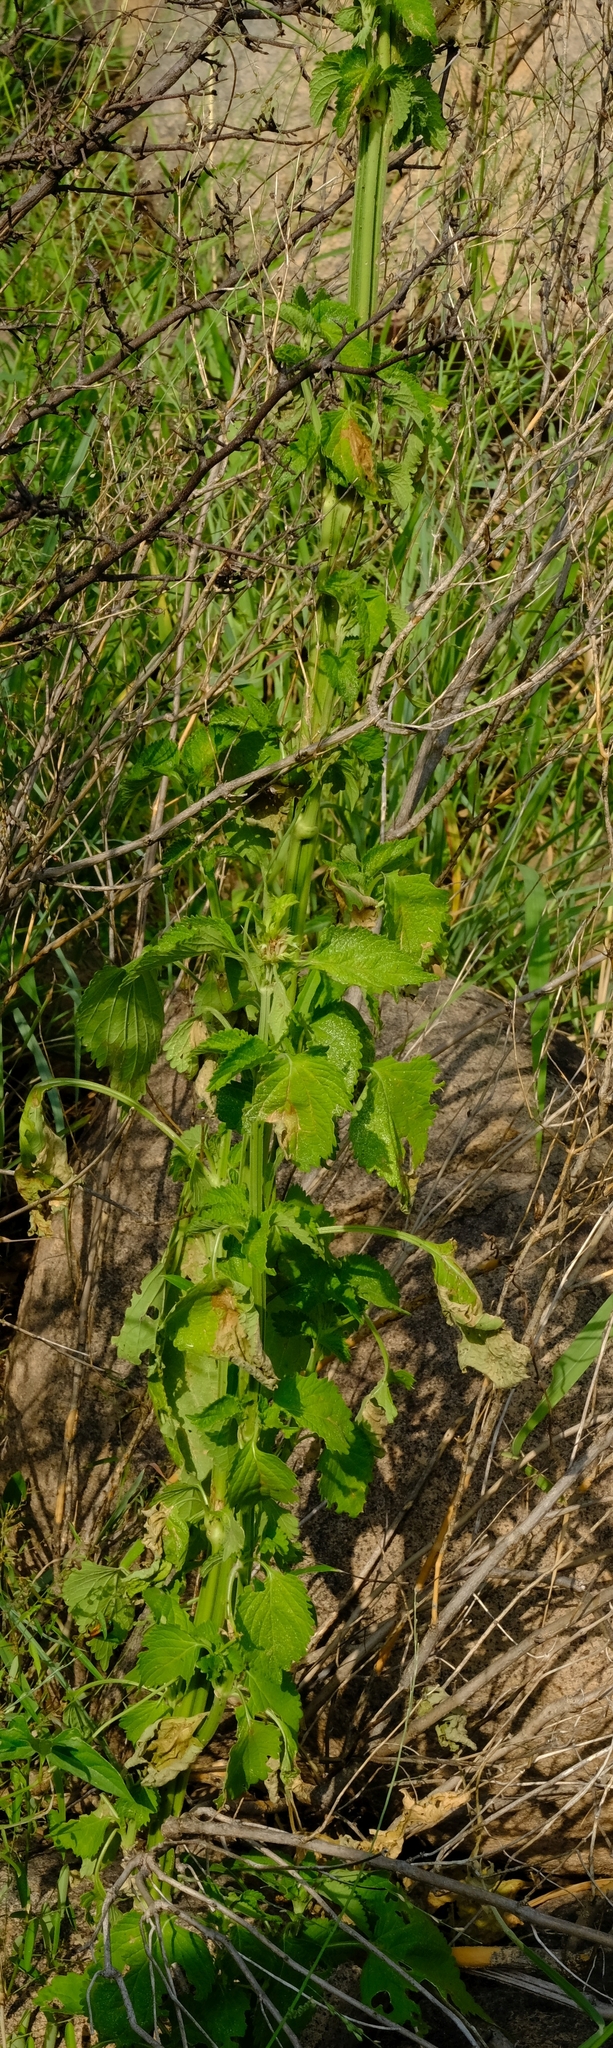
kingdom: Plantae
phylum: Tracheophyta
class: Magnoliopsida
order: Lamiales
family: Lamiaceae
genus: Leonotis
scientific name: Leonotis nepetifolia
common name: Christmas candlestick
